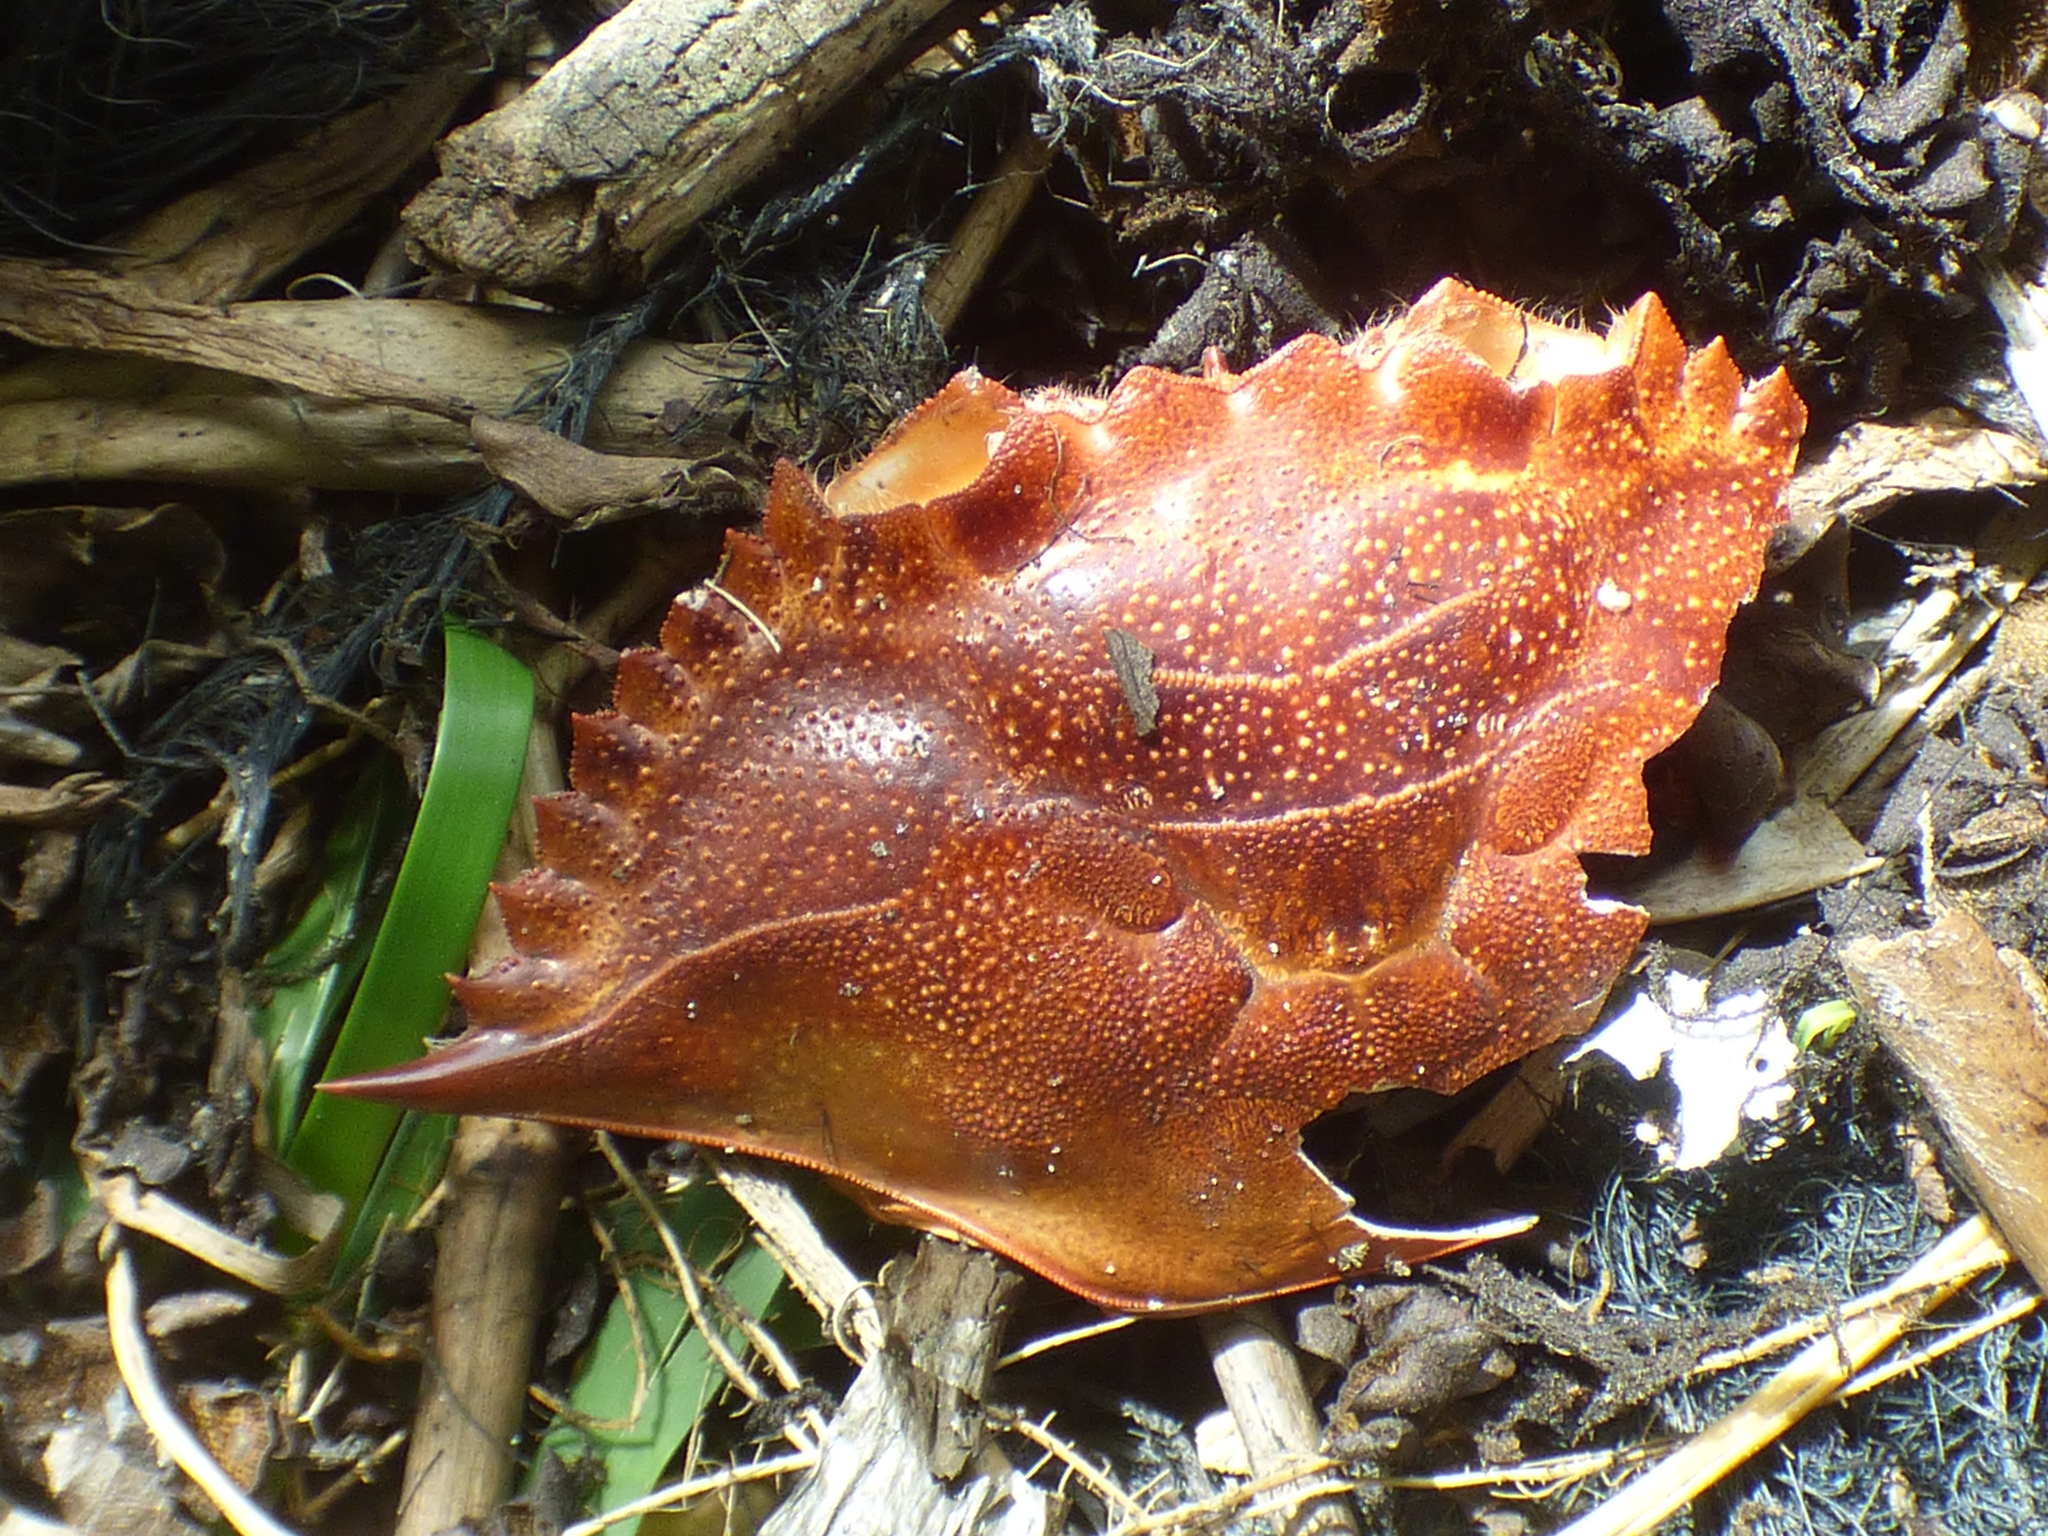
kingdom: Animalia
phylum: Arthropoda
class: Malacostraca
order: Decapoda
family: Portunidae
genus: Callinectes
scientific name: Callinectes sapidus
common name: Blue crab
